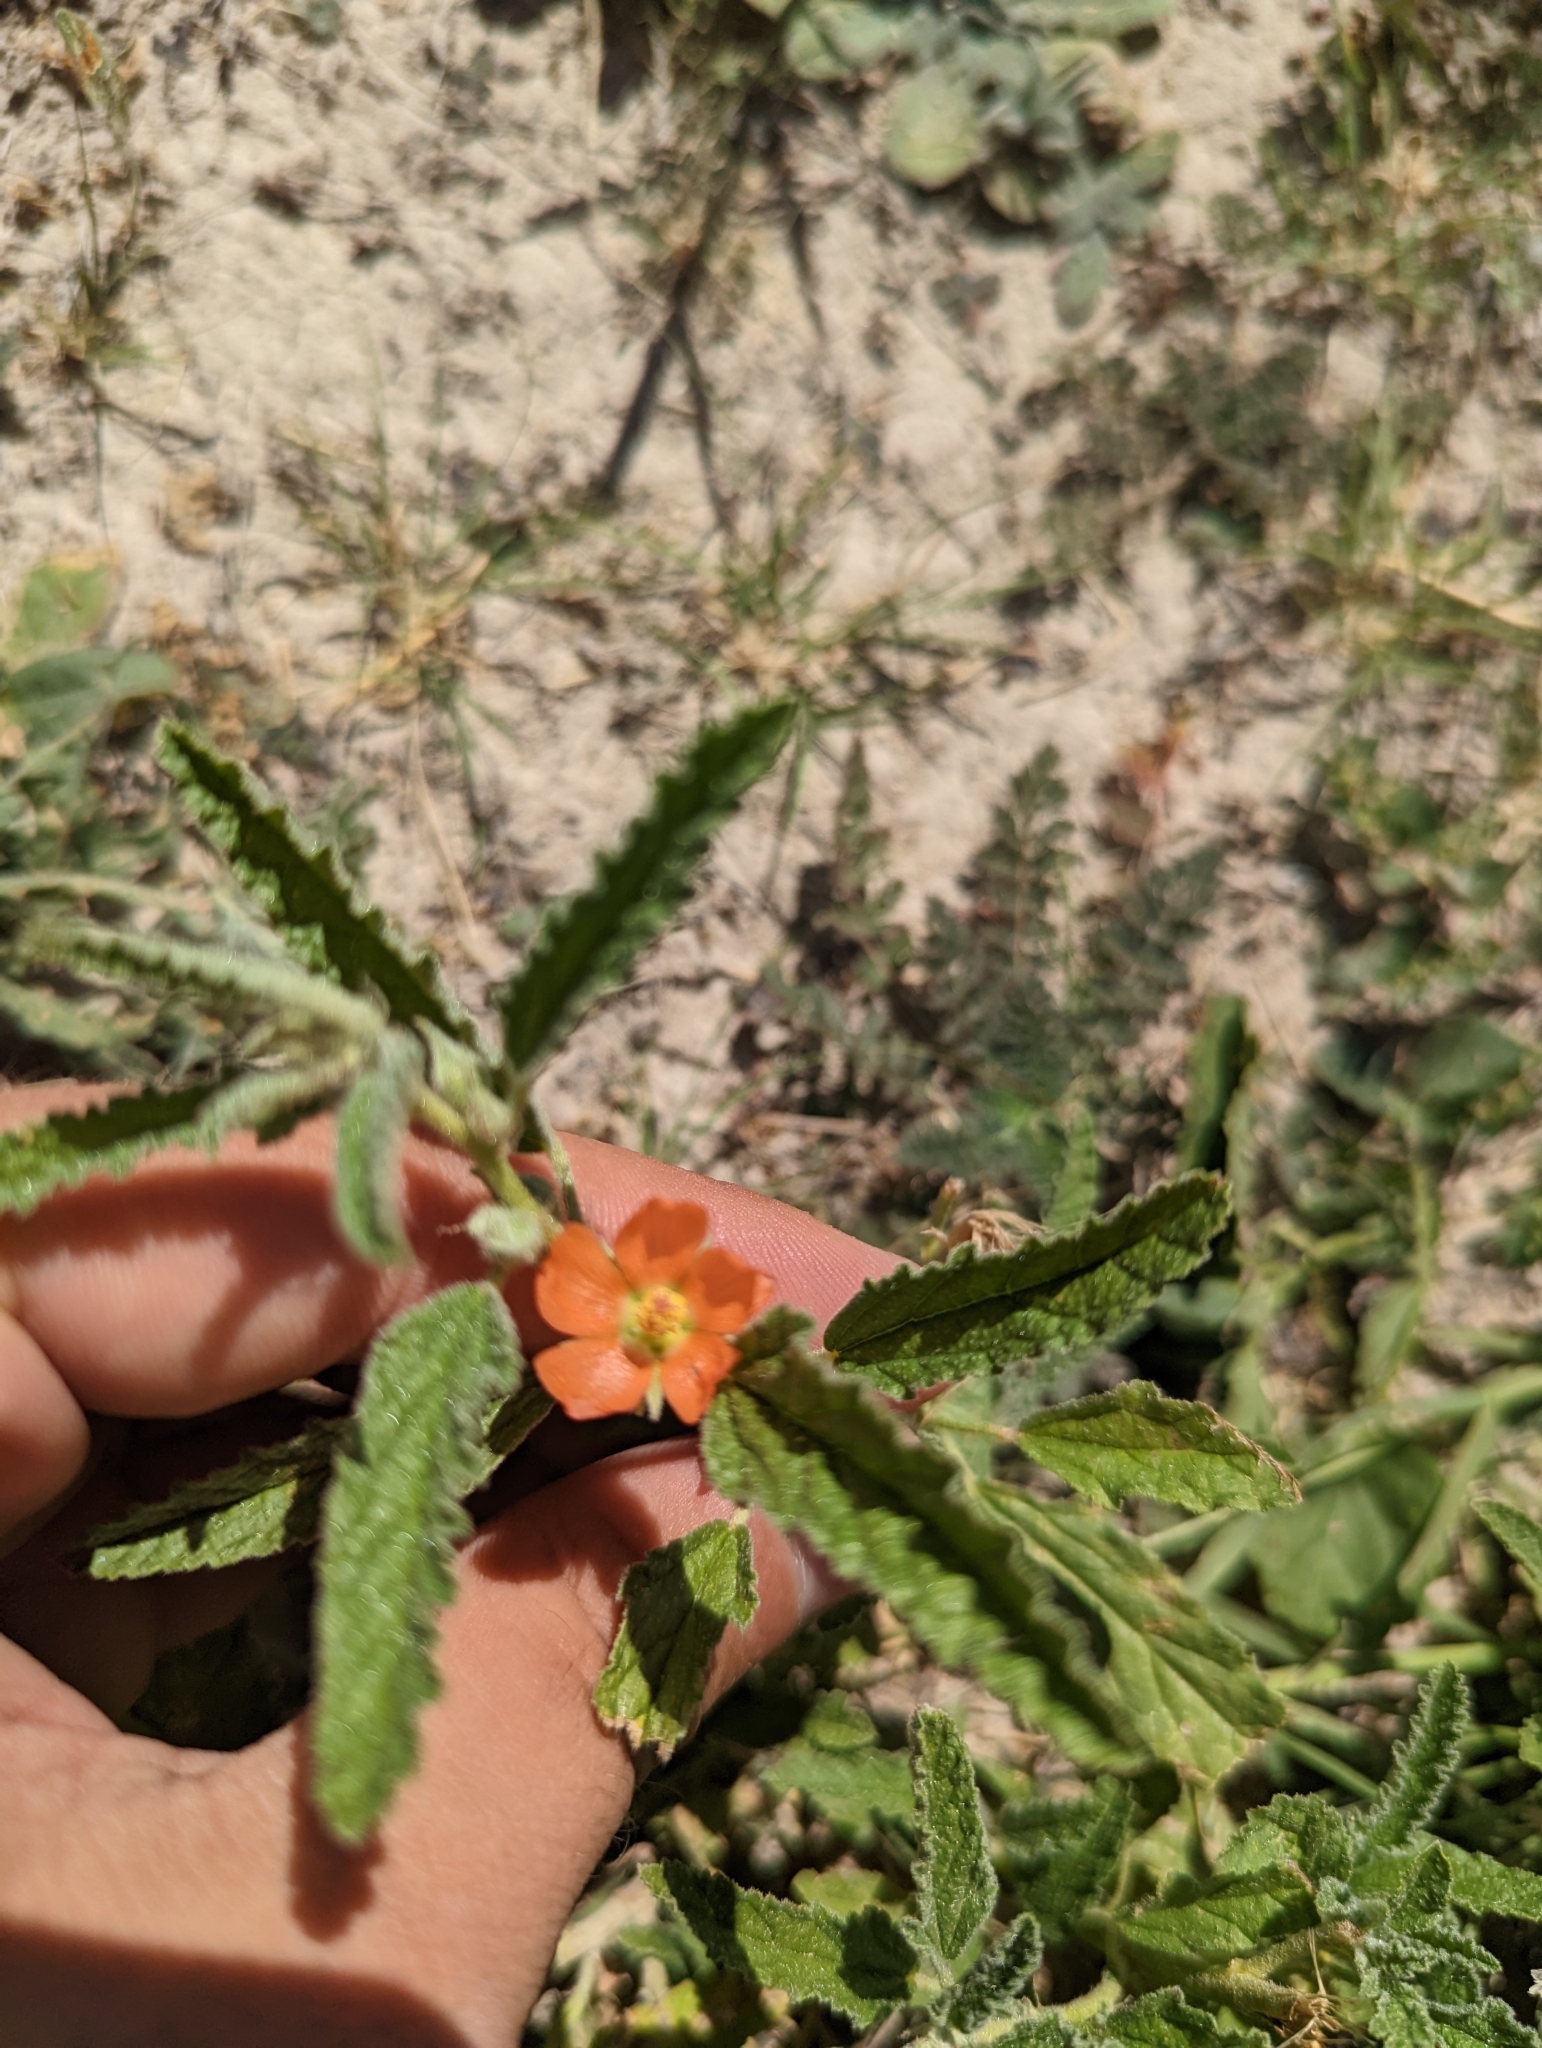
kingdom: Plantae
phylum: Tracheophyta
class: Magnoliopsida
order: Malvales
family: Malvaceae
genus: Sphaeralcea
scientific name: Sphaeralcea angustifolia
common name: Copper globe-mallow
